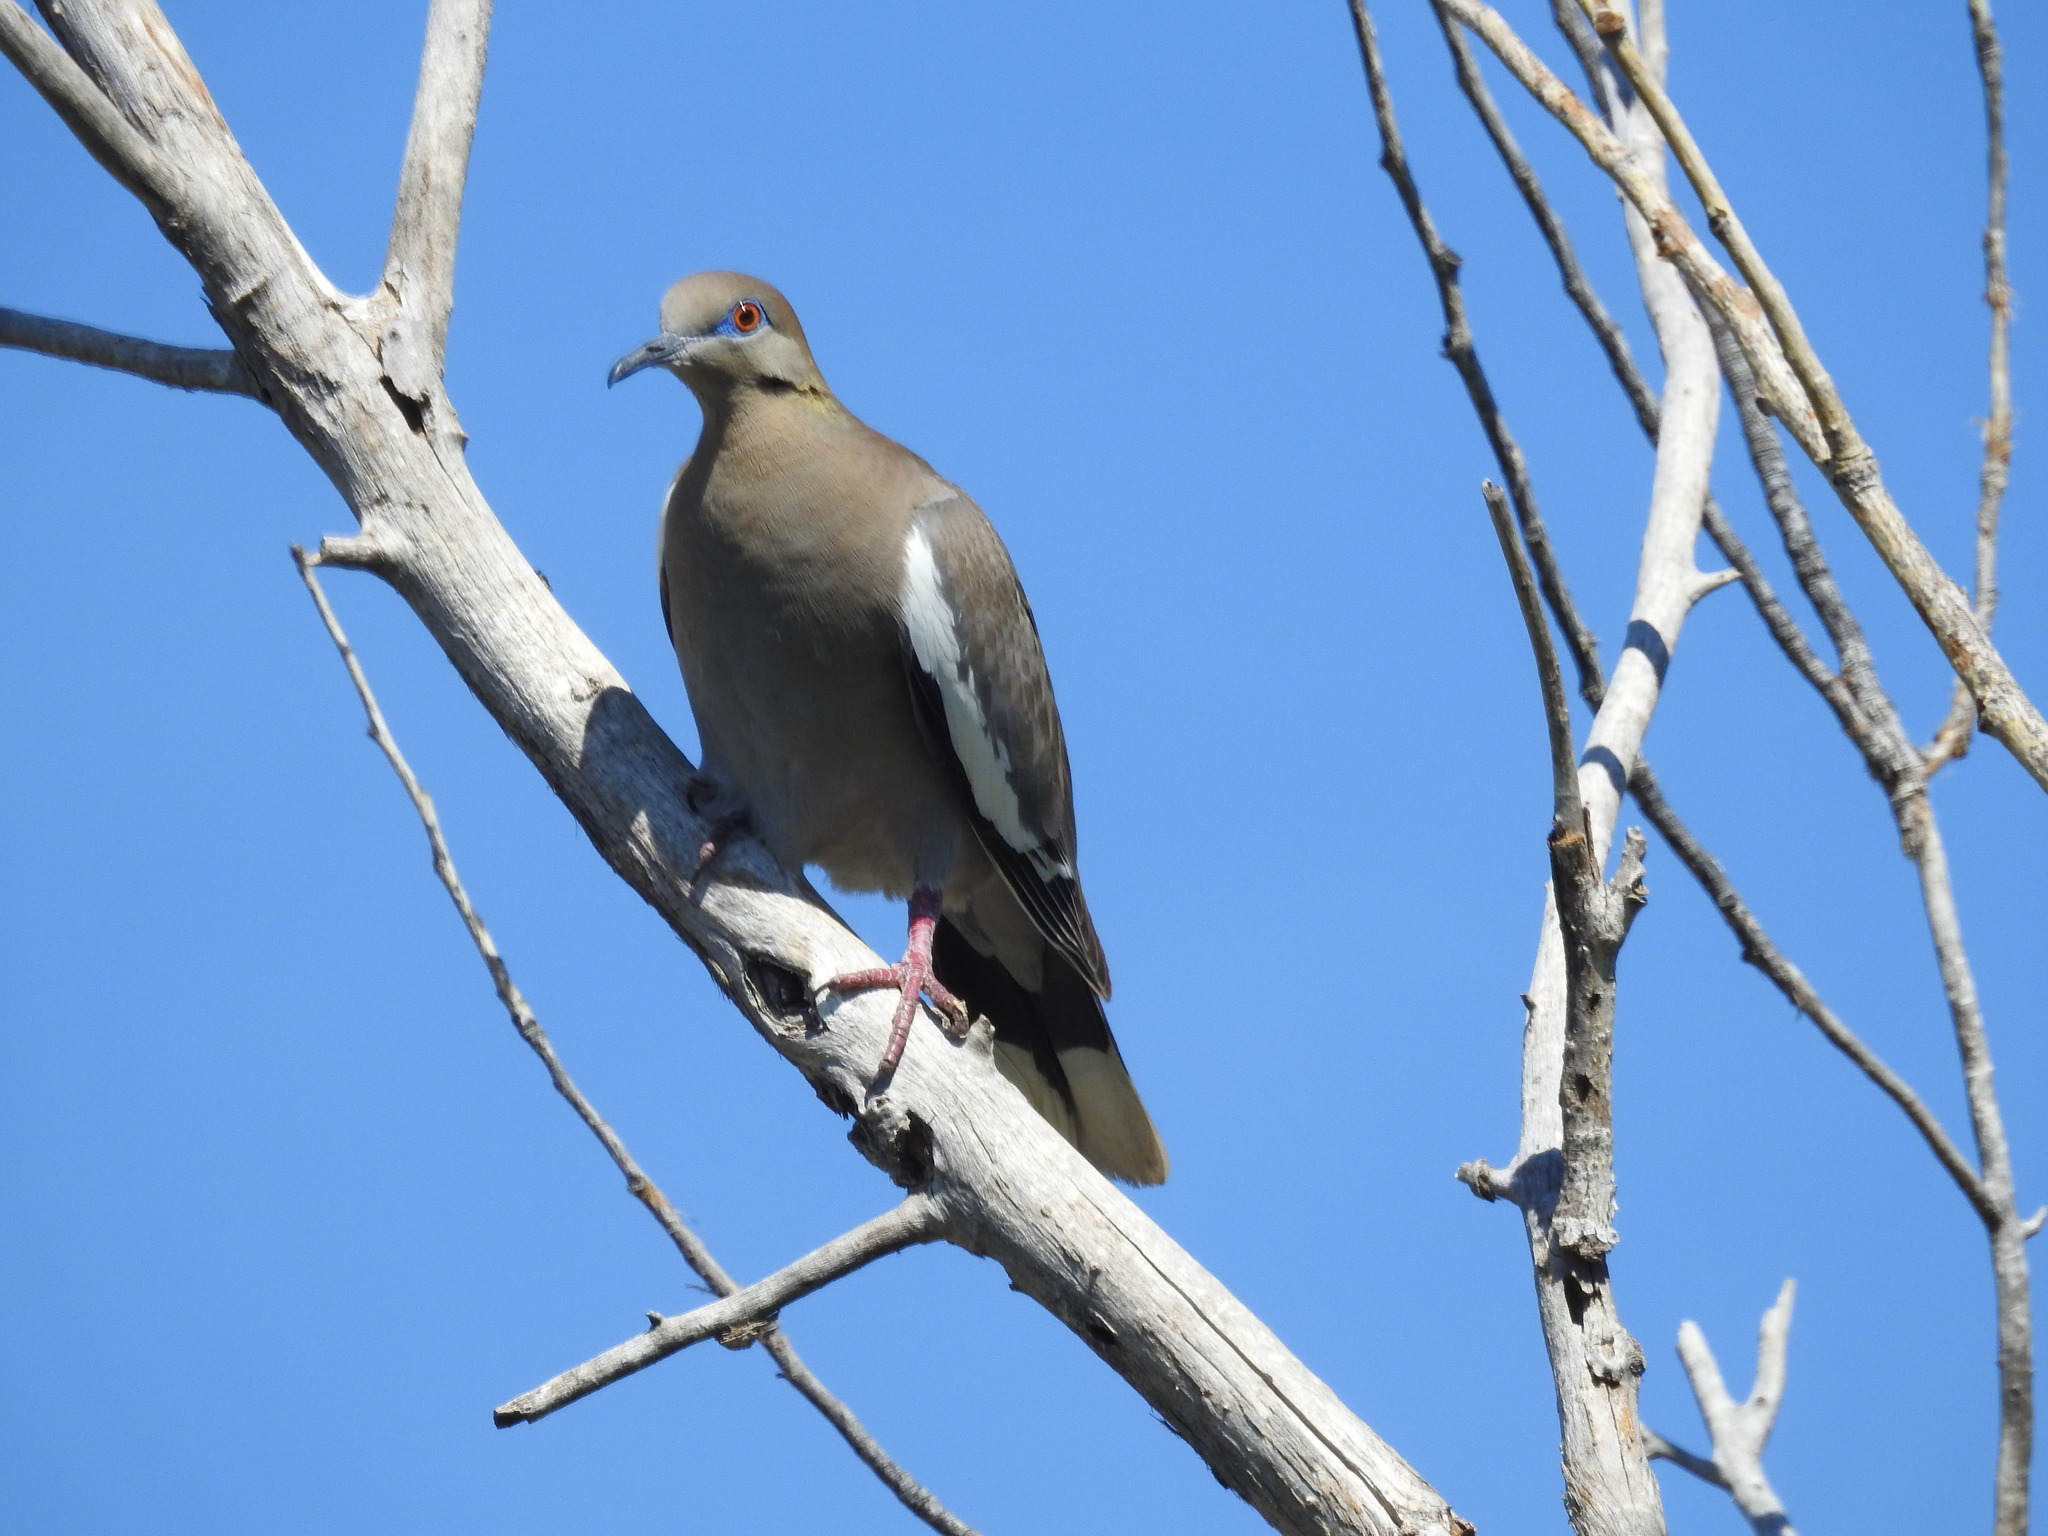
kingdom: Animalia
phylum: Chordata
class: Aves
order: Columbiformes
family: Columbidae
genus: Zenaida
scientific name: Zenaida asiatica
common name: White-winged dove
